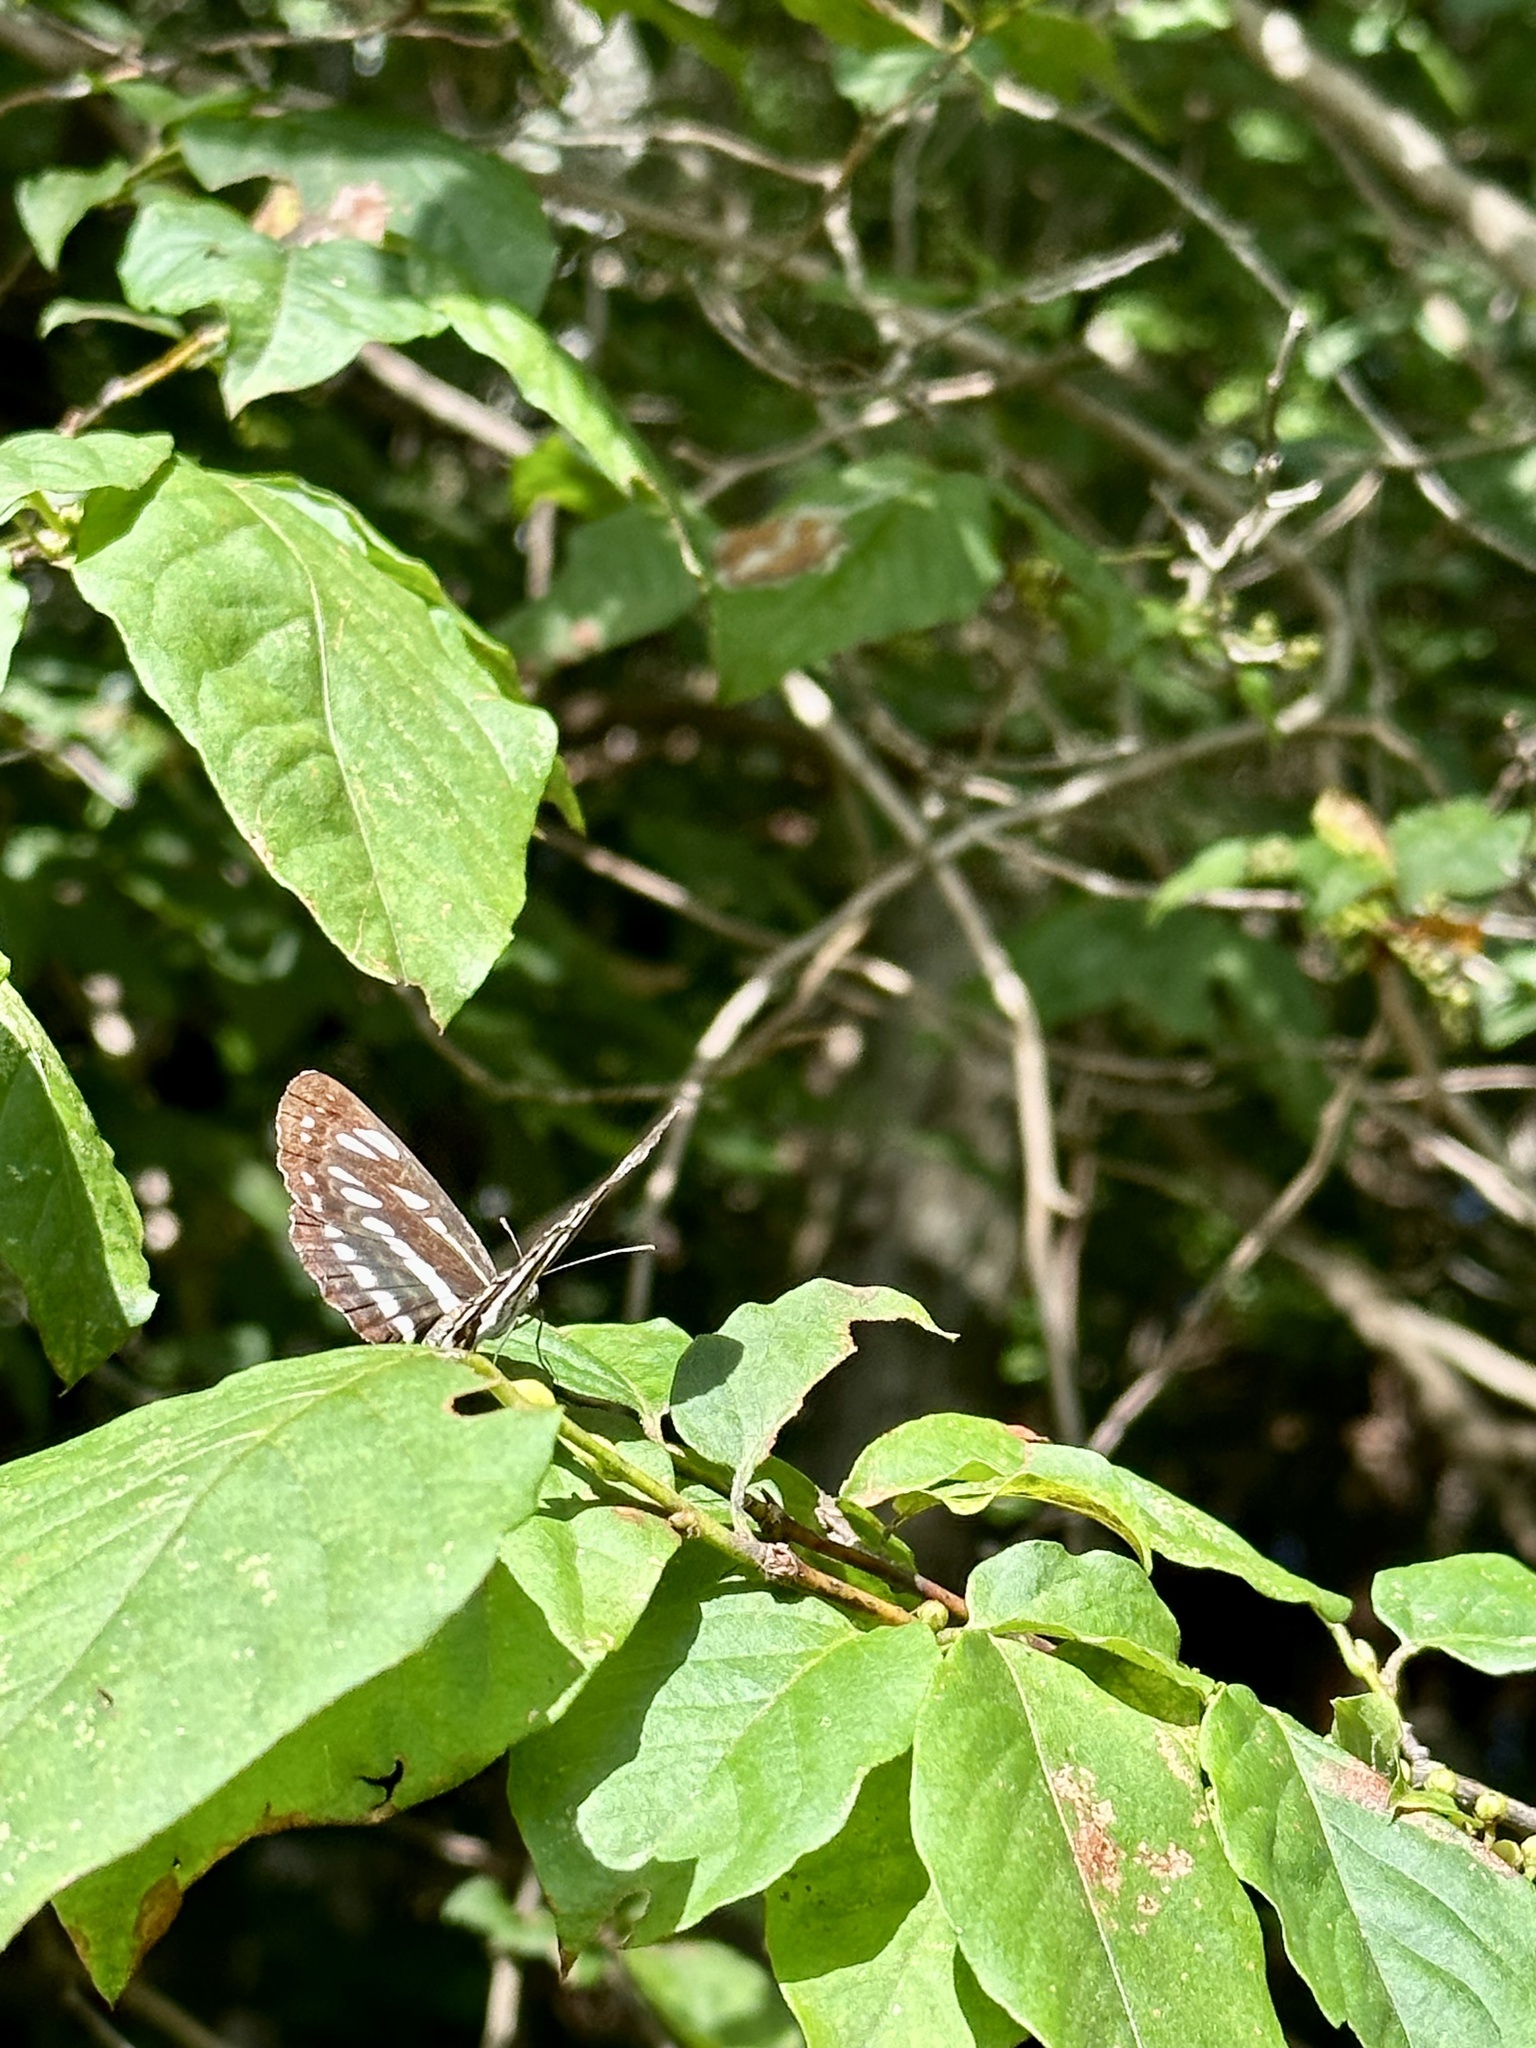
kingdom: Animalia
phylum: Arthropoda
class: Insecta
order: Lepidoptera
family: Nymphalidae
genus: Neptis
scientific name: Neptis sappho
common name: Common glider
